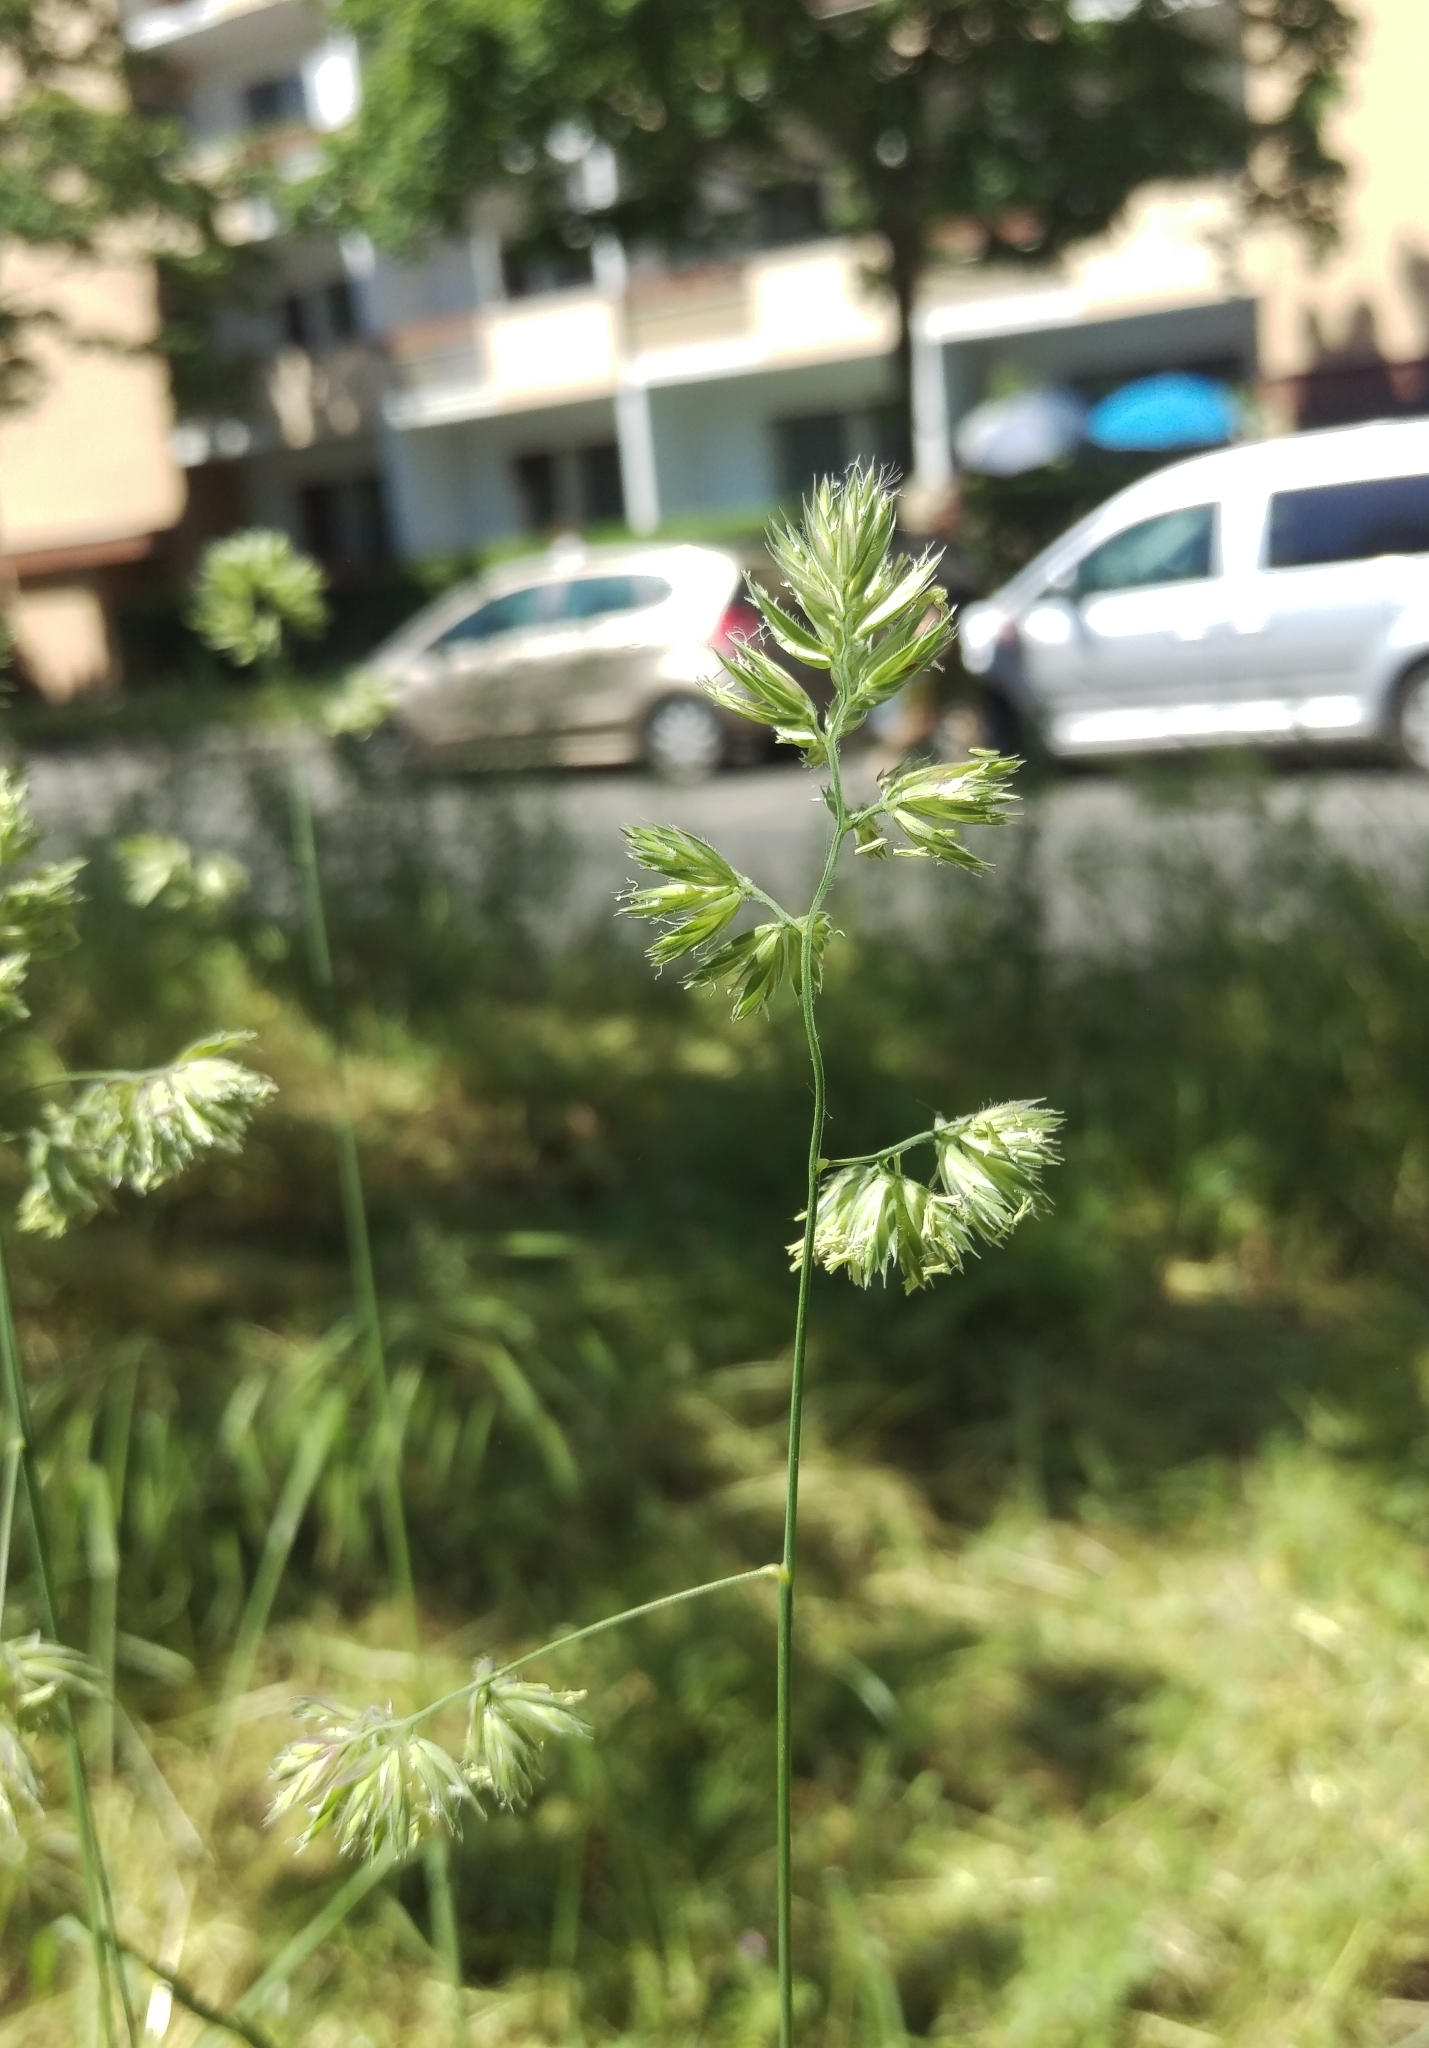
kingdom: Plantae
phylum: Tracheophyta
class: Liliopsida
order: Poales
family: Poaceae
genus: Dactylis
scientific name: Dactylis glomerata
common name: Orchardgrass
